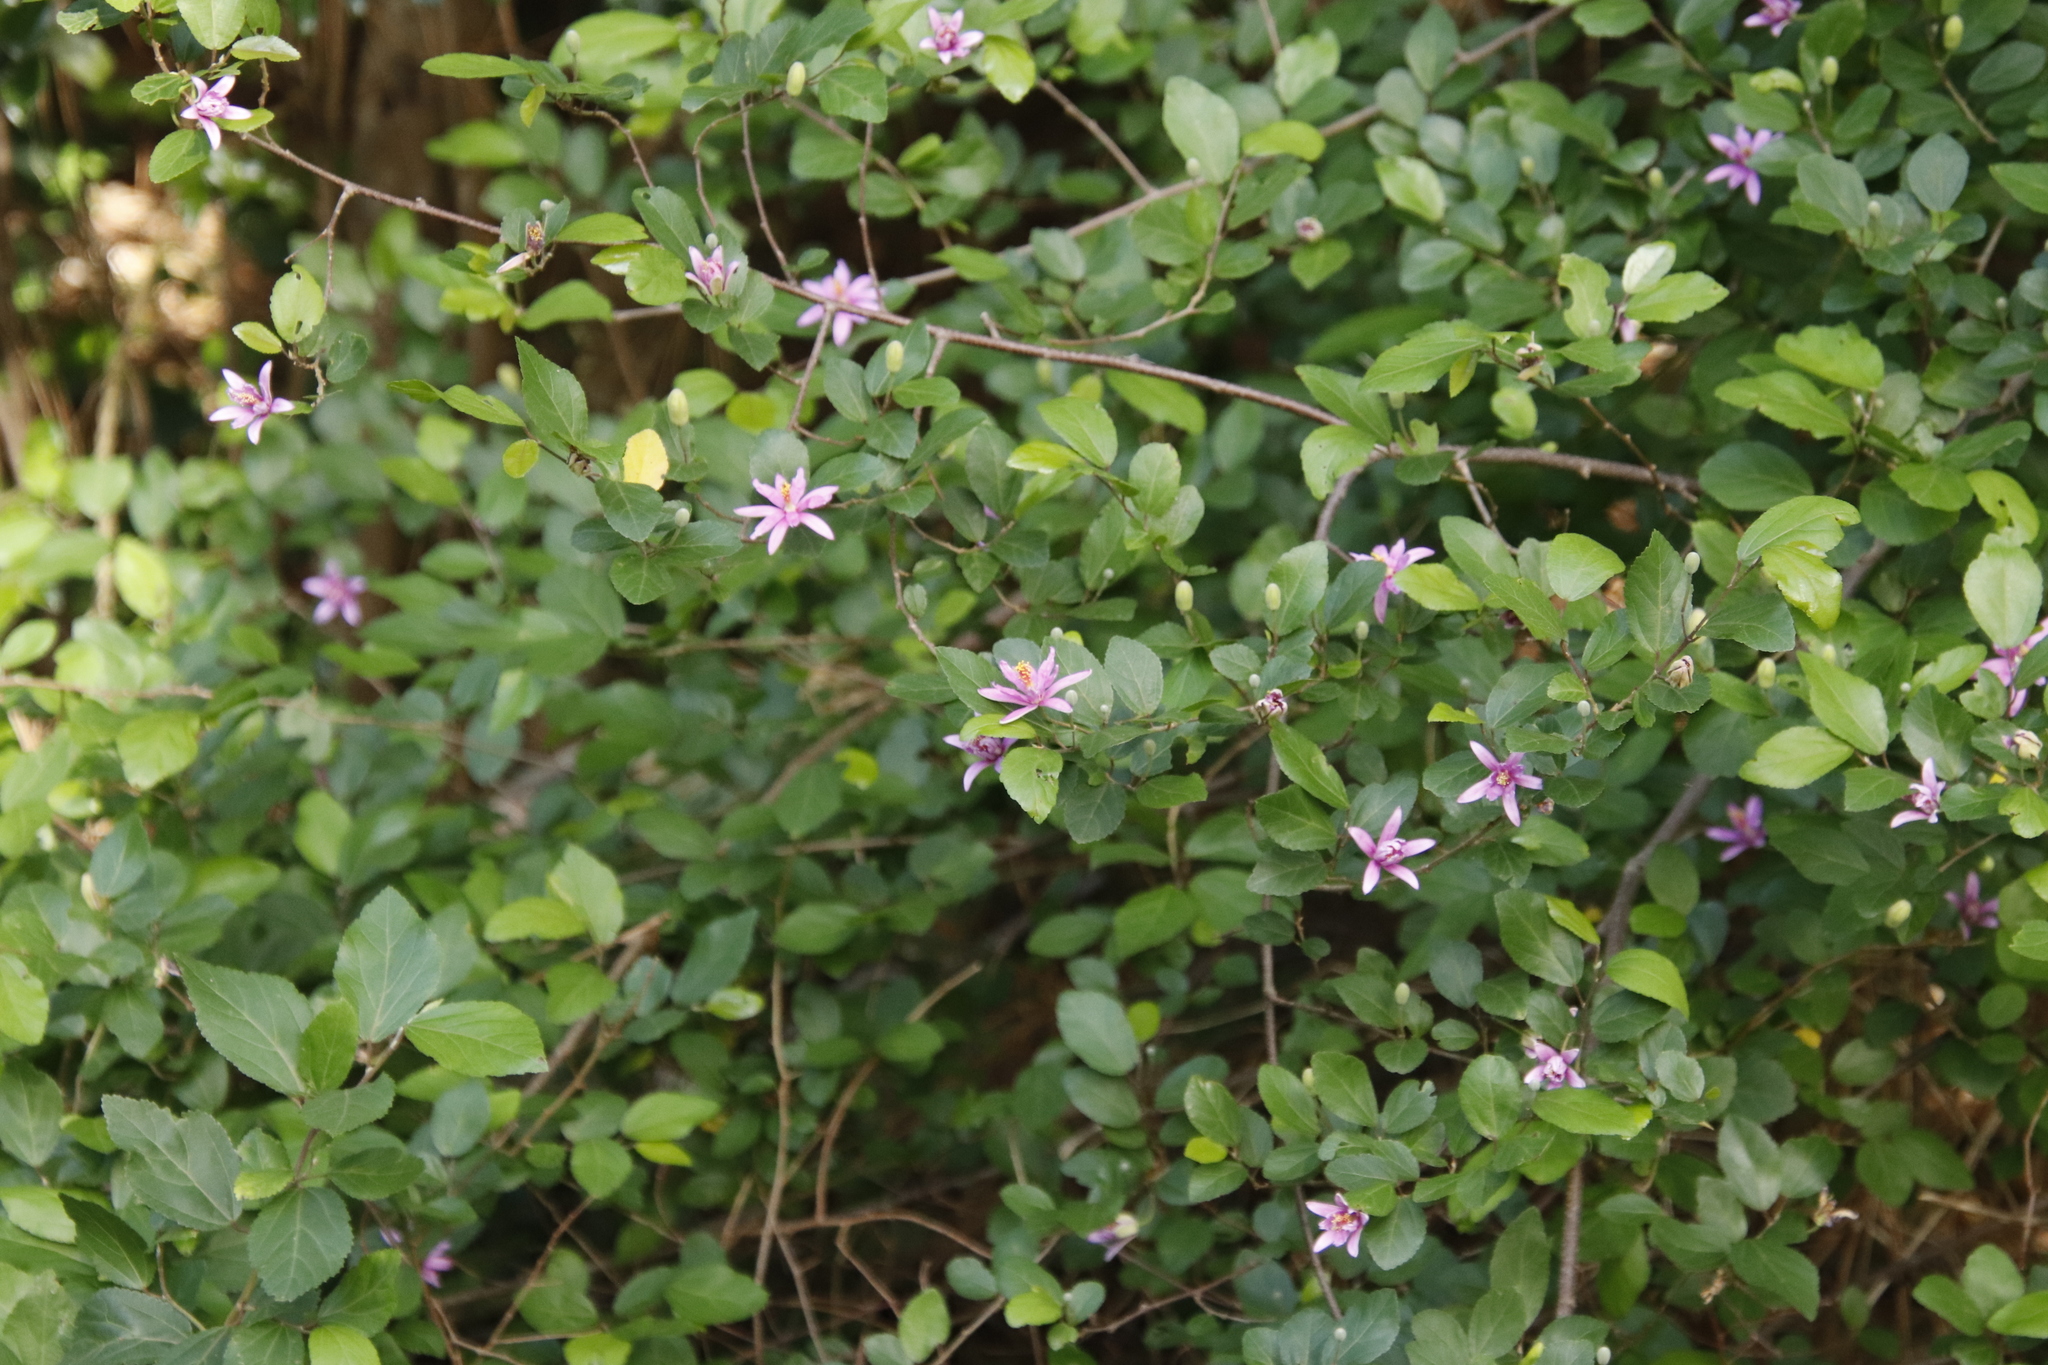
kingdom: Plantae
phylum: Tracheophyta
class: Magnoliopsida
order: Malvales
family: Malvaceae
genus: Grewia
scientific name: Grewia occidentalis
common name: Crossberry
